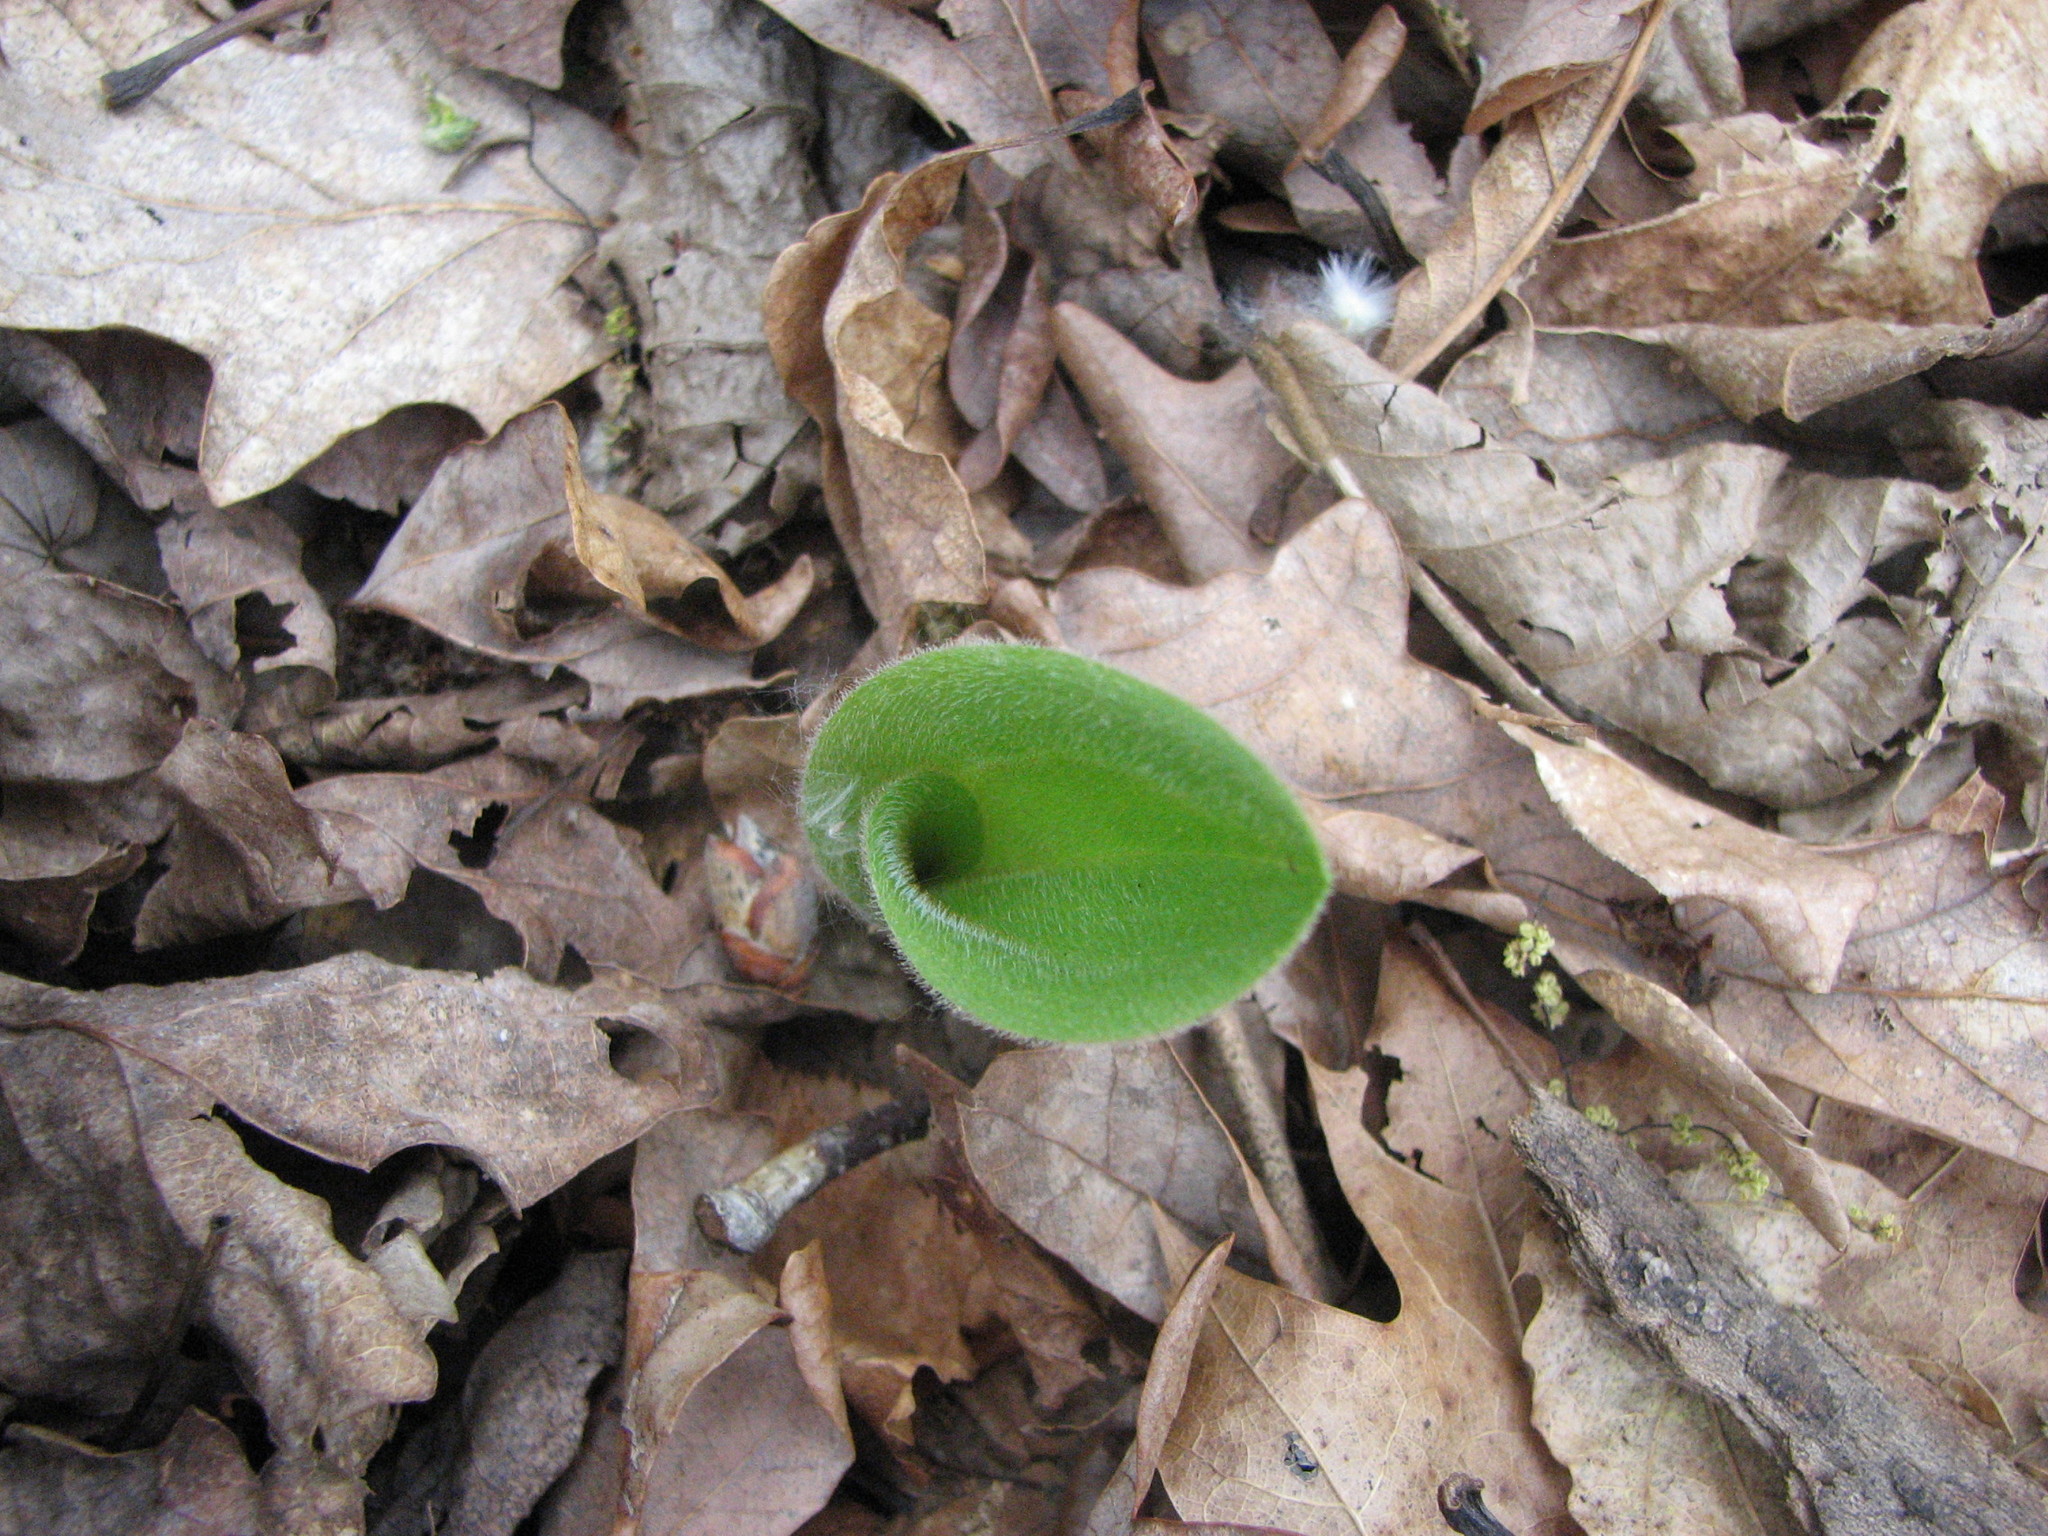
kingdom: Plantae
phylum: Tracheophyta
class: Liliopsida
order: Asparagales
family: Orchidaceae
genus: Cypripedium
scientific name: Cypripedium acaule
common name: Pink lady's-slipper
